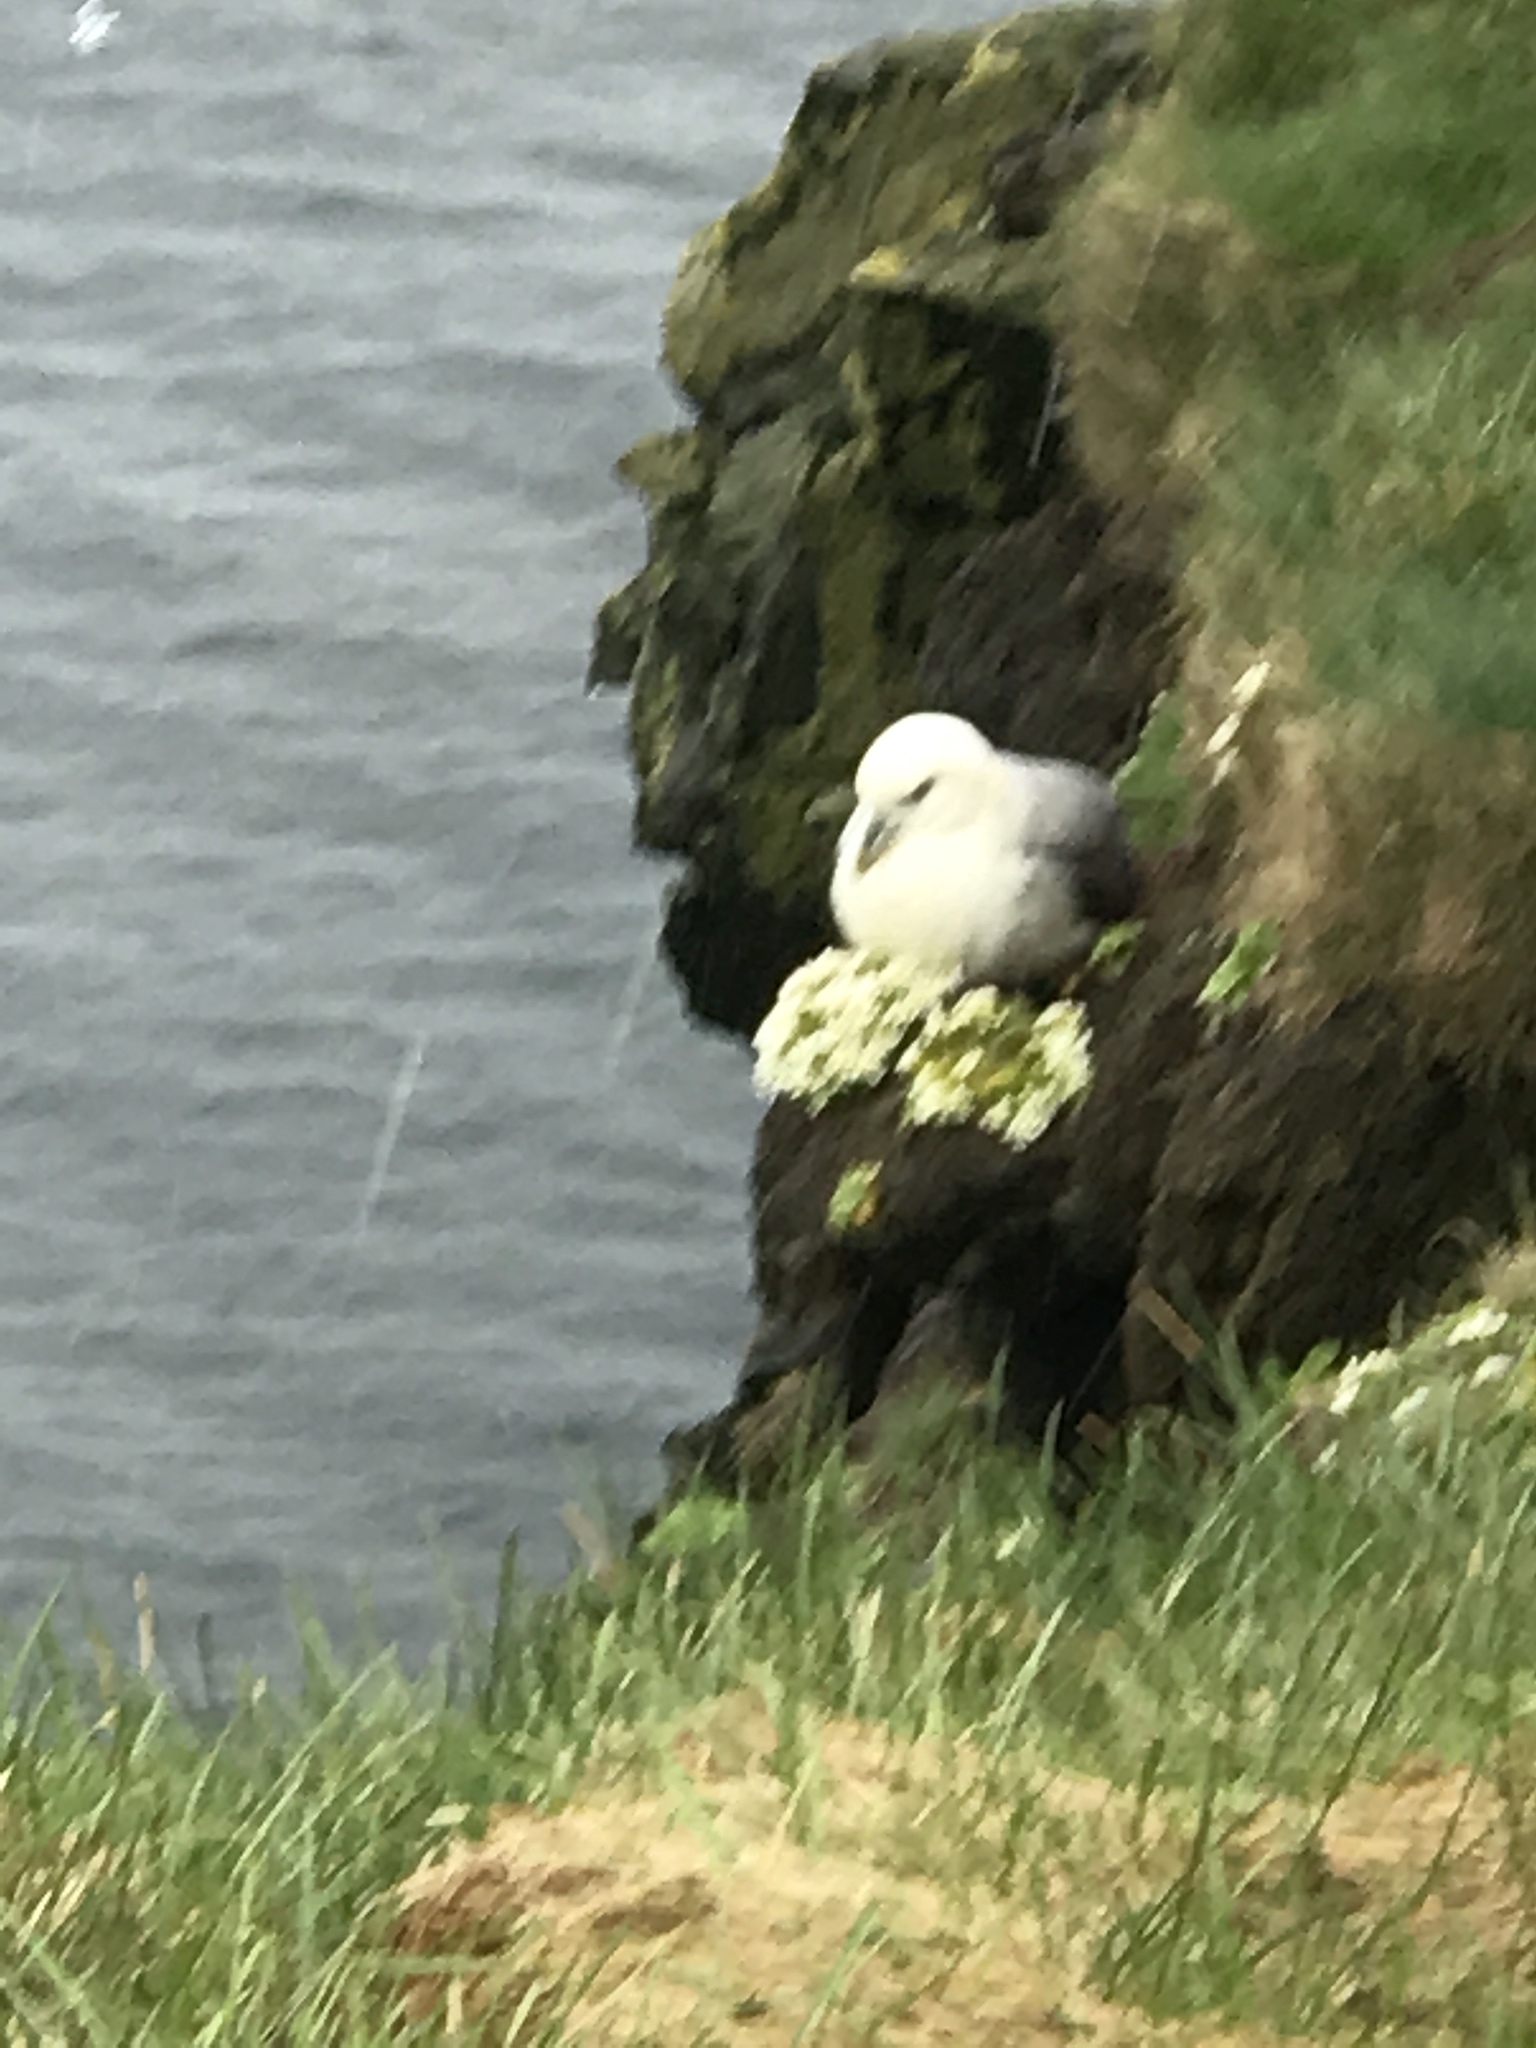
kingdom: Animalia
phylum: Chordata
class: Aves
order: Procellariiformes
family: Procellariidae
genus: Fulmarus
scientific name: Fulmarus glacialis
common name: Northern fulmar
